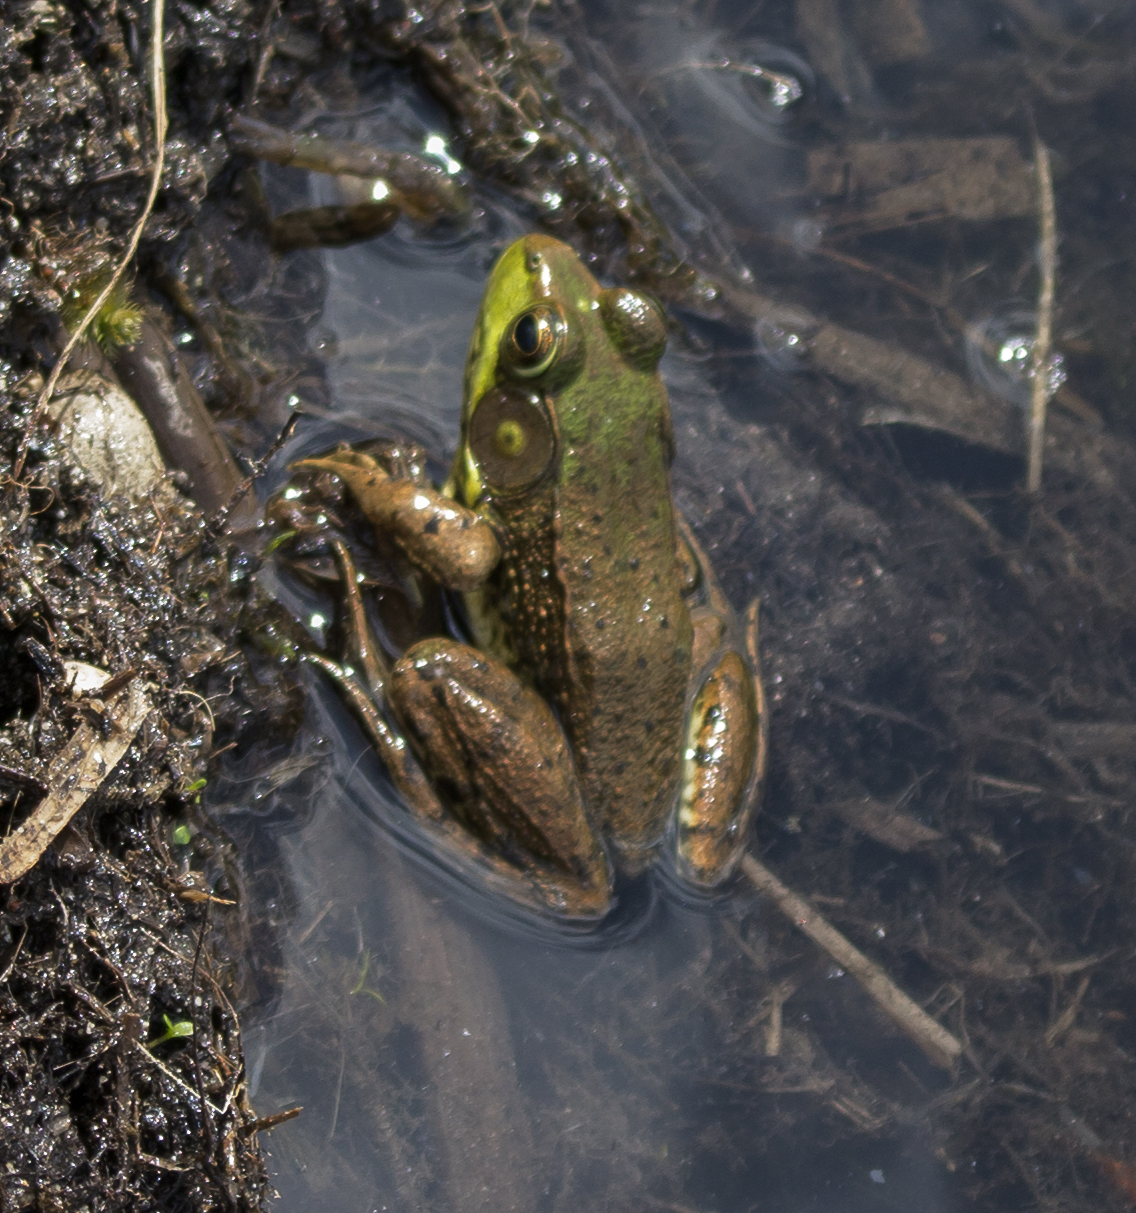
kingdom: Animalia
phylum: Chordata
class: Amphibia
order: Anura
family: Ranidae
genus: Lithobates
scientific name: Lithobates clamitans
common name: Green frog
